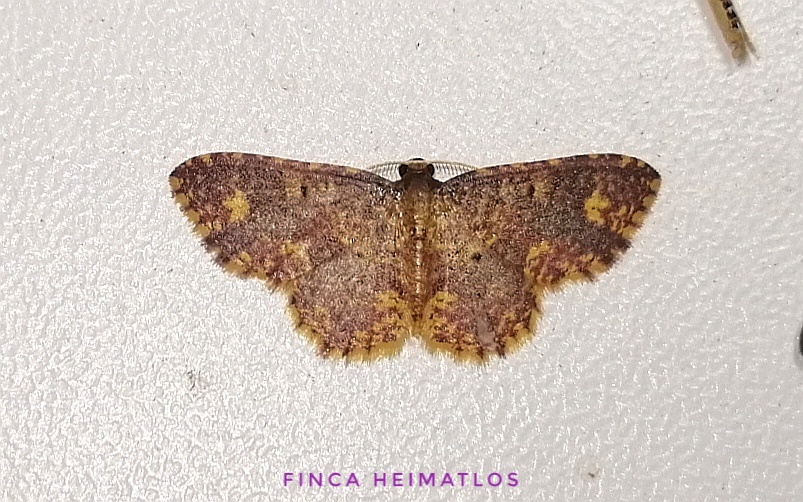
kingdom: Animalia
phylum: Arthropoda
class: Insecta
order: Lepidoptera
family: Geometridae
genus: Eois
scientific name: Eois lunifera
